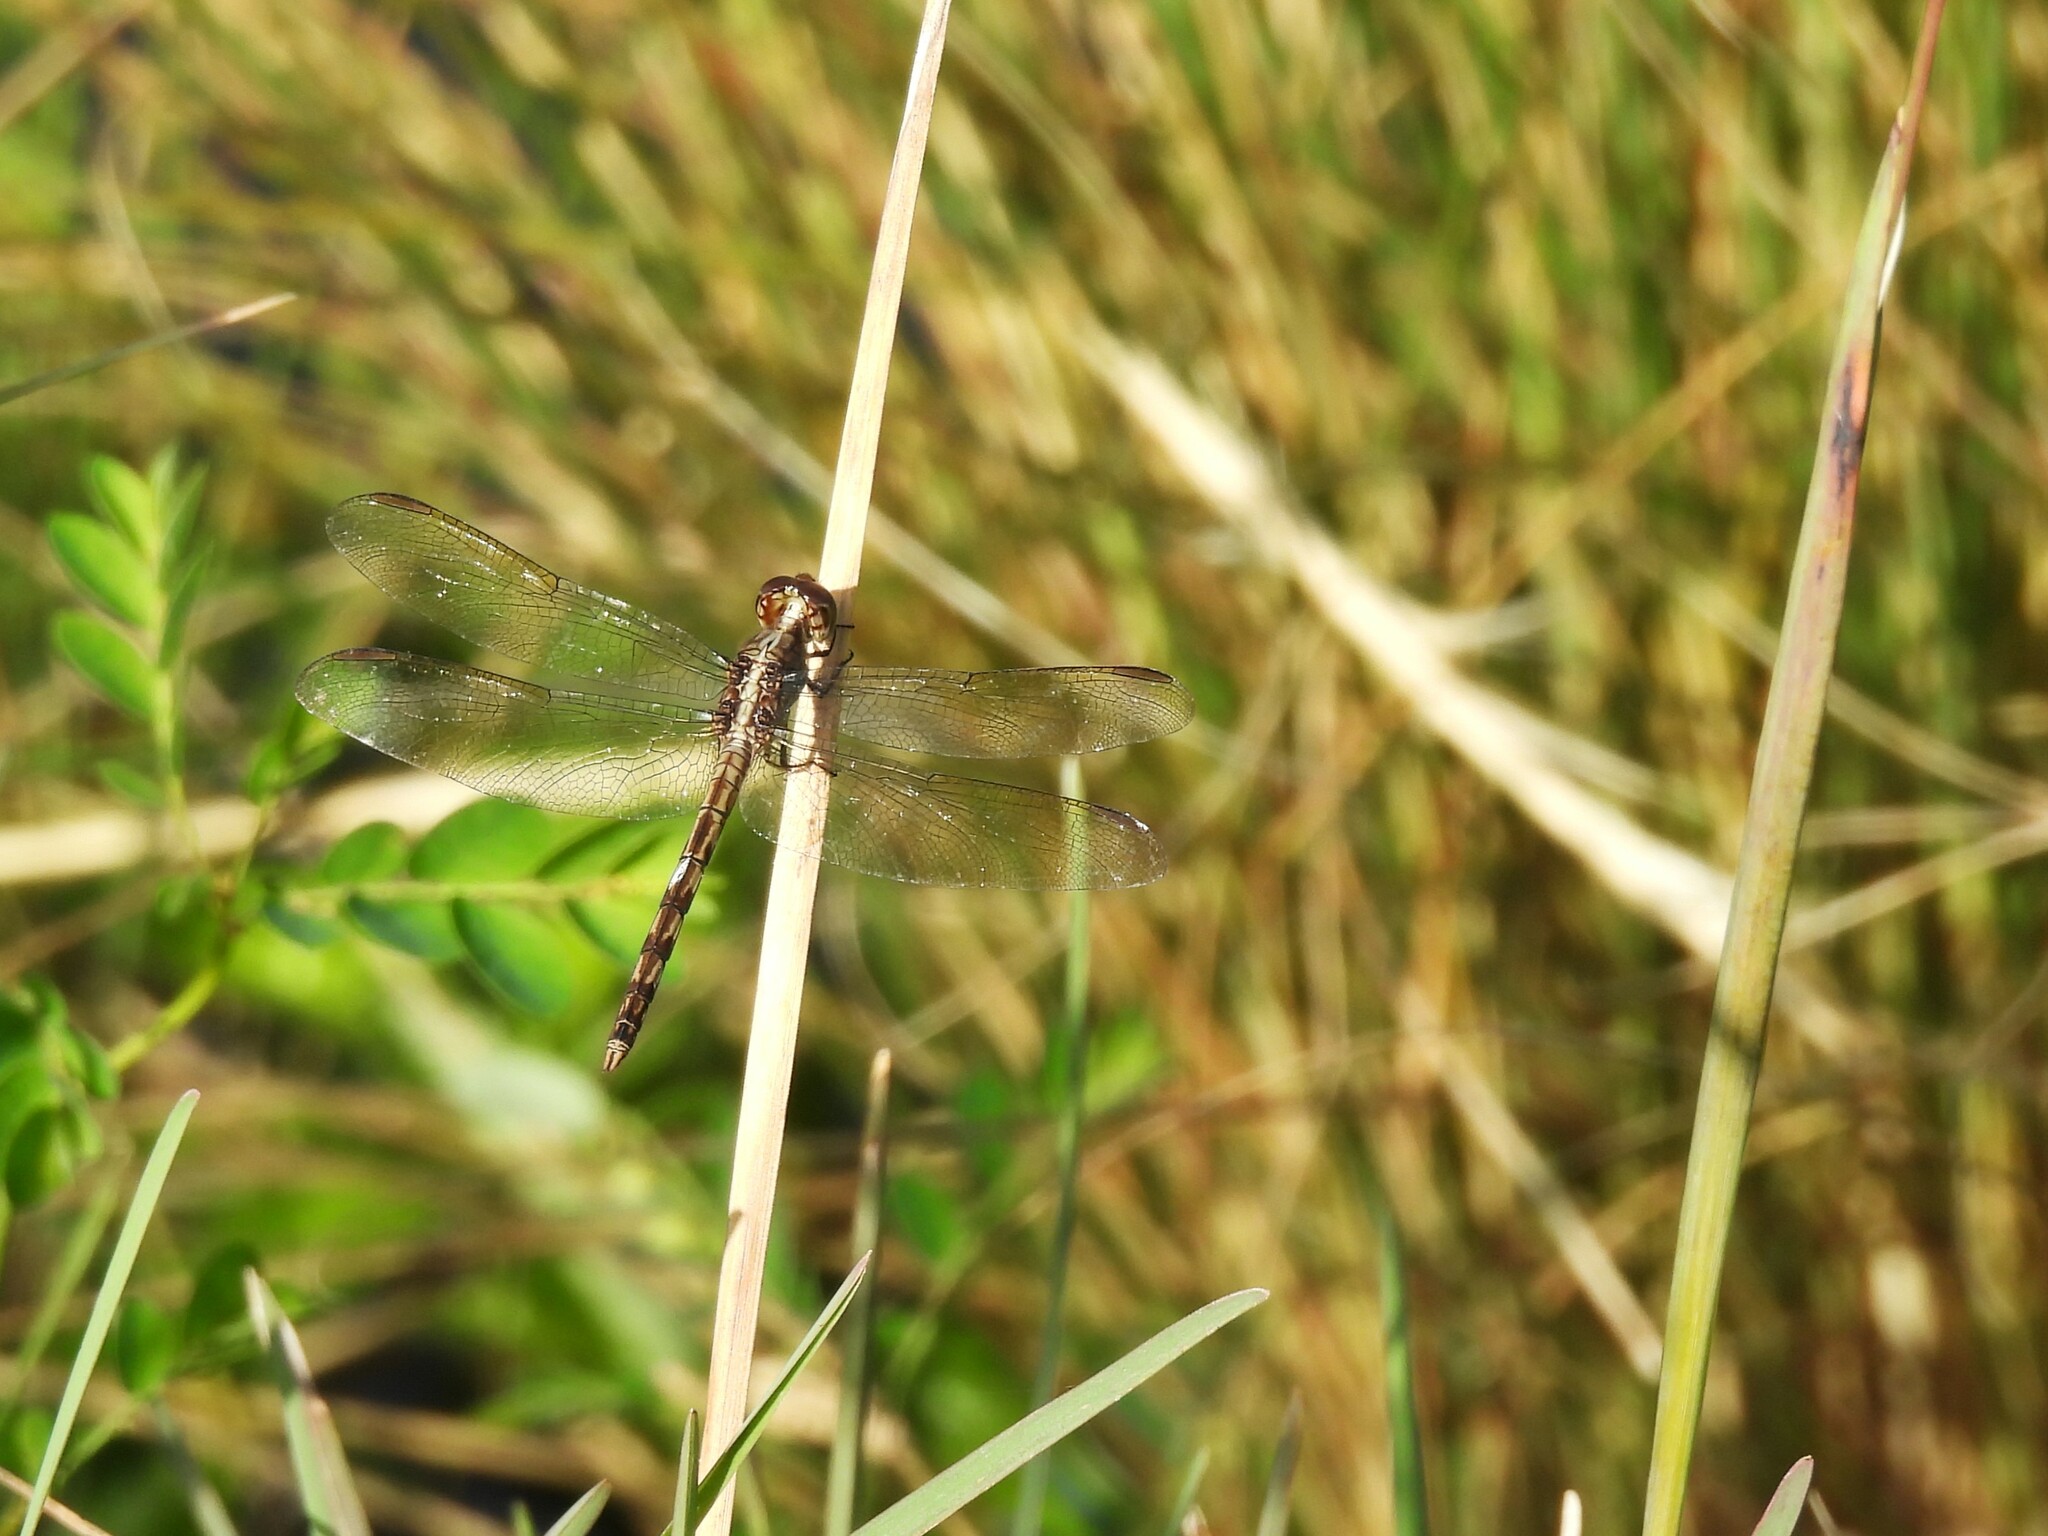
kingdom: Animalia
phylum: Arthropoda
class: Insecta
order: Odonata
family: Libellulidae
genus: Erythrodiplax
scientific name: Erythrodiplax umbrata
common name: Band-winged dragonlet
